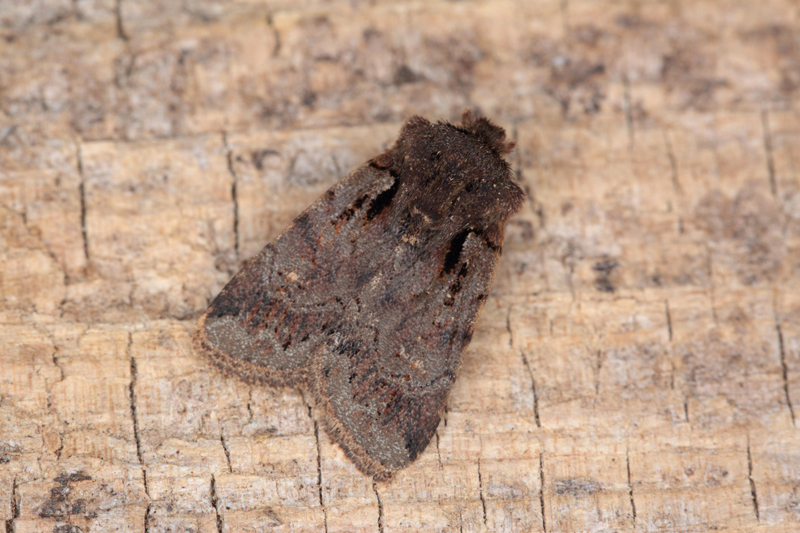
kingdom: Animalia
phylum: Arthropoda
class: Insecta
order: Lepidoptera
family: Noctuidae
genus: Austramathes
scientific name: Austramathes squaliolus
